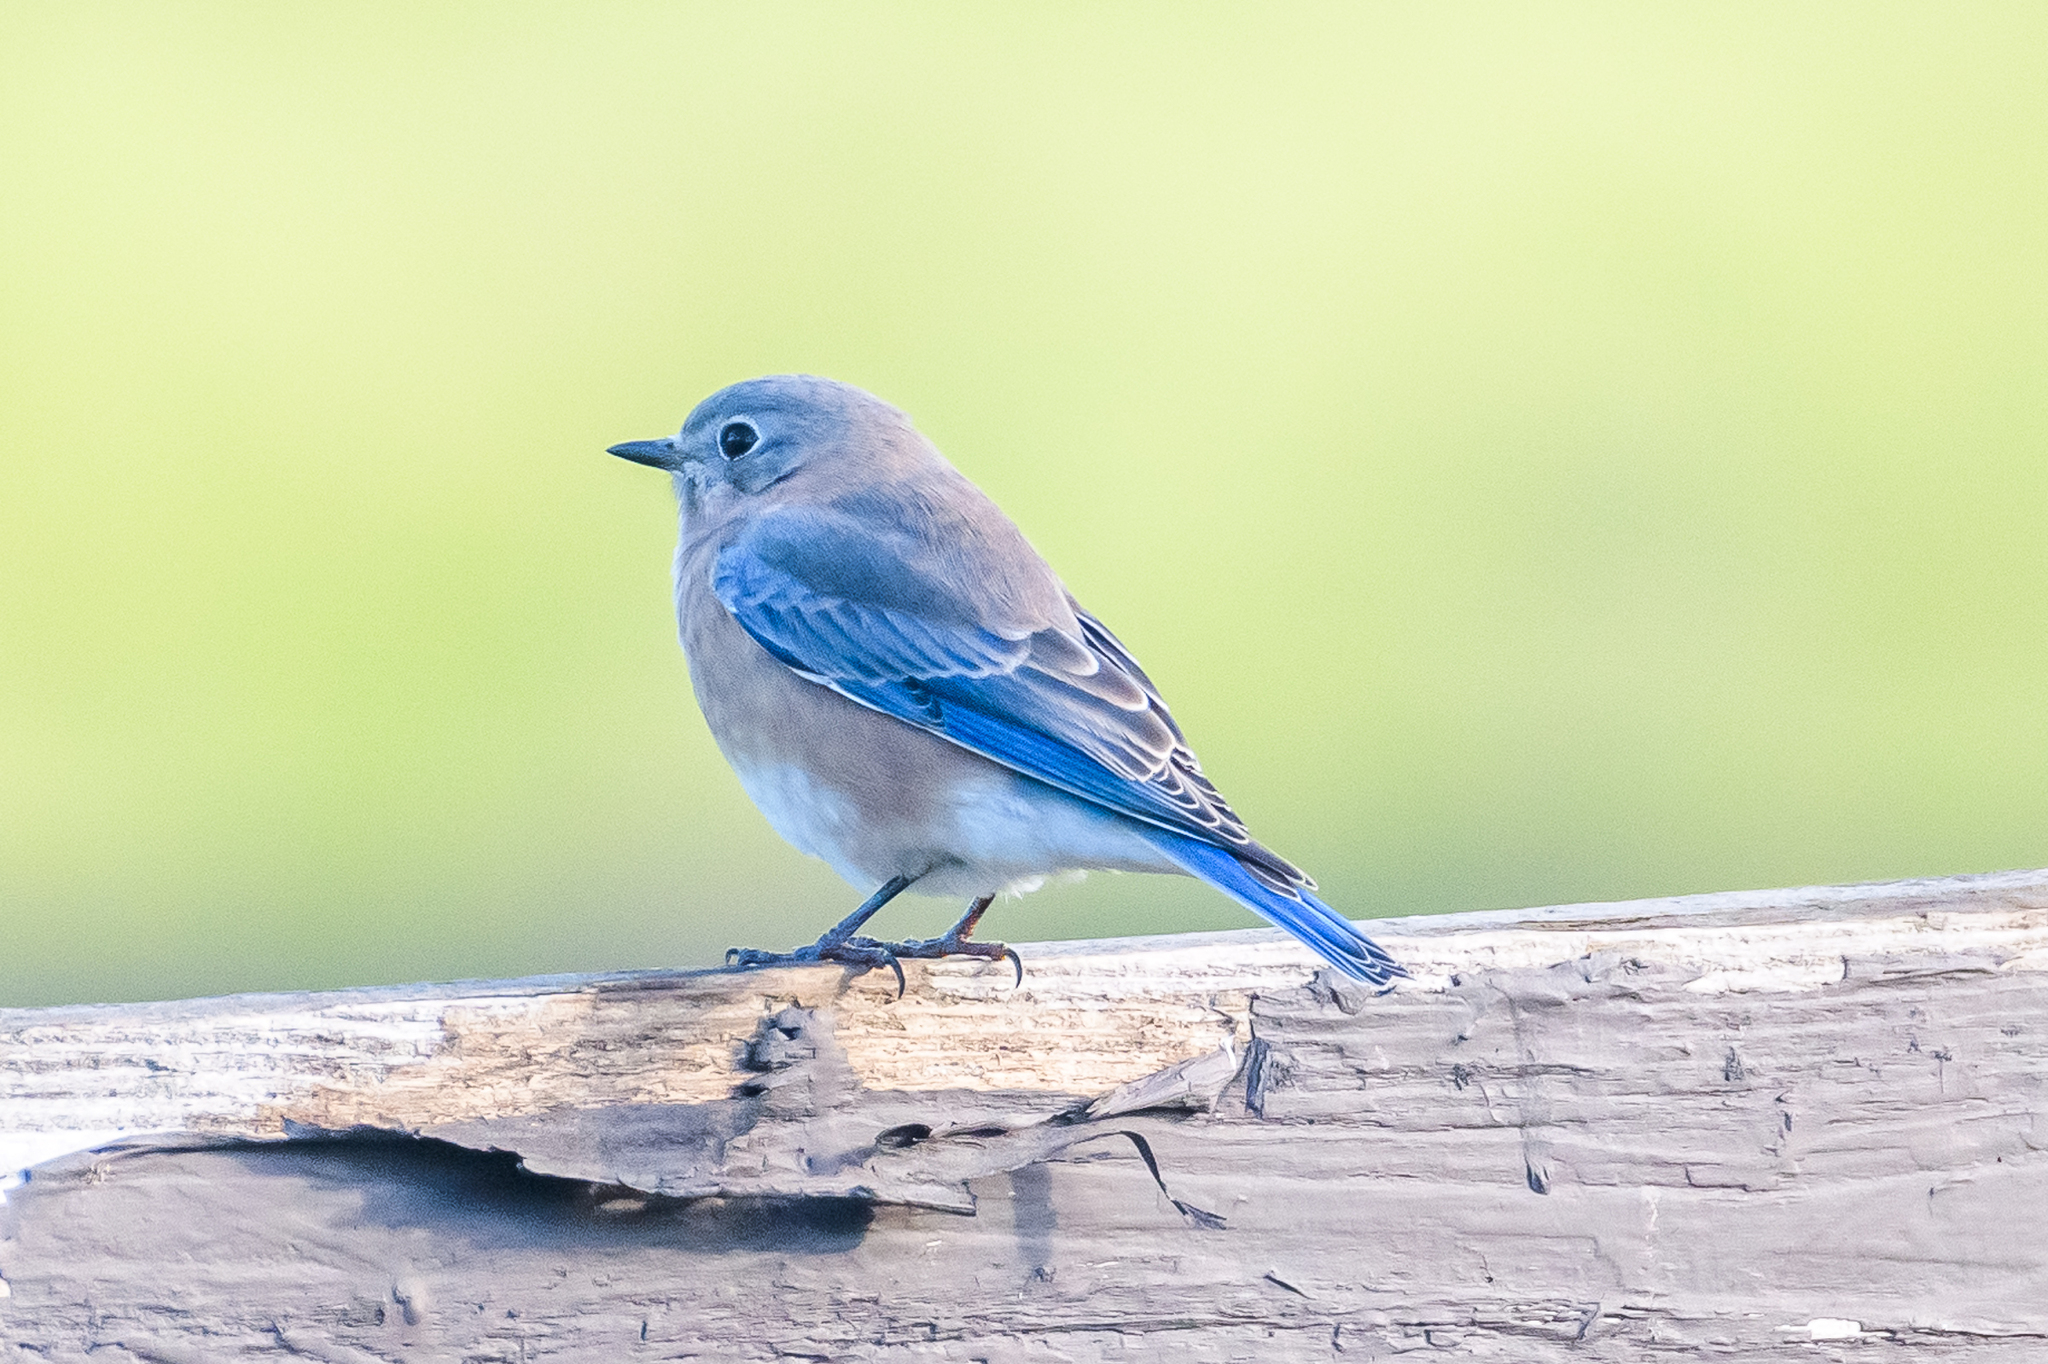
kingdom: Animalia
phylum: Chordata
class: Aves
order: Passeriformes
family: Turdidae
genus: Sialia
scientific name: Sialia sialis
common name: Eastern bluebird
